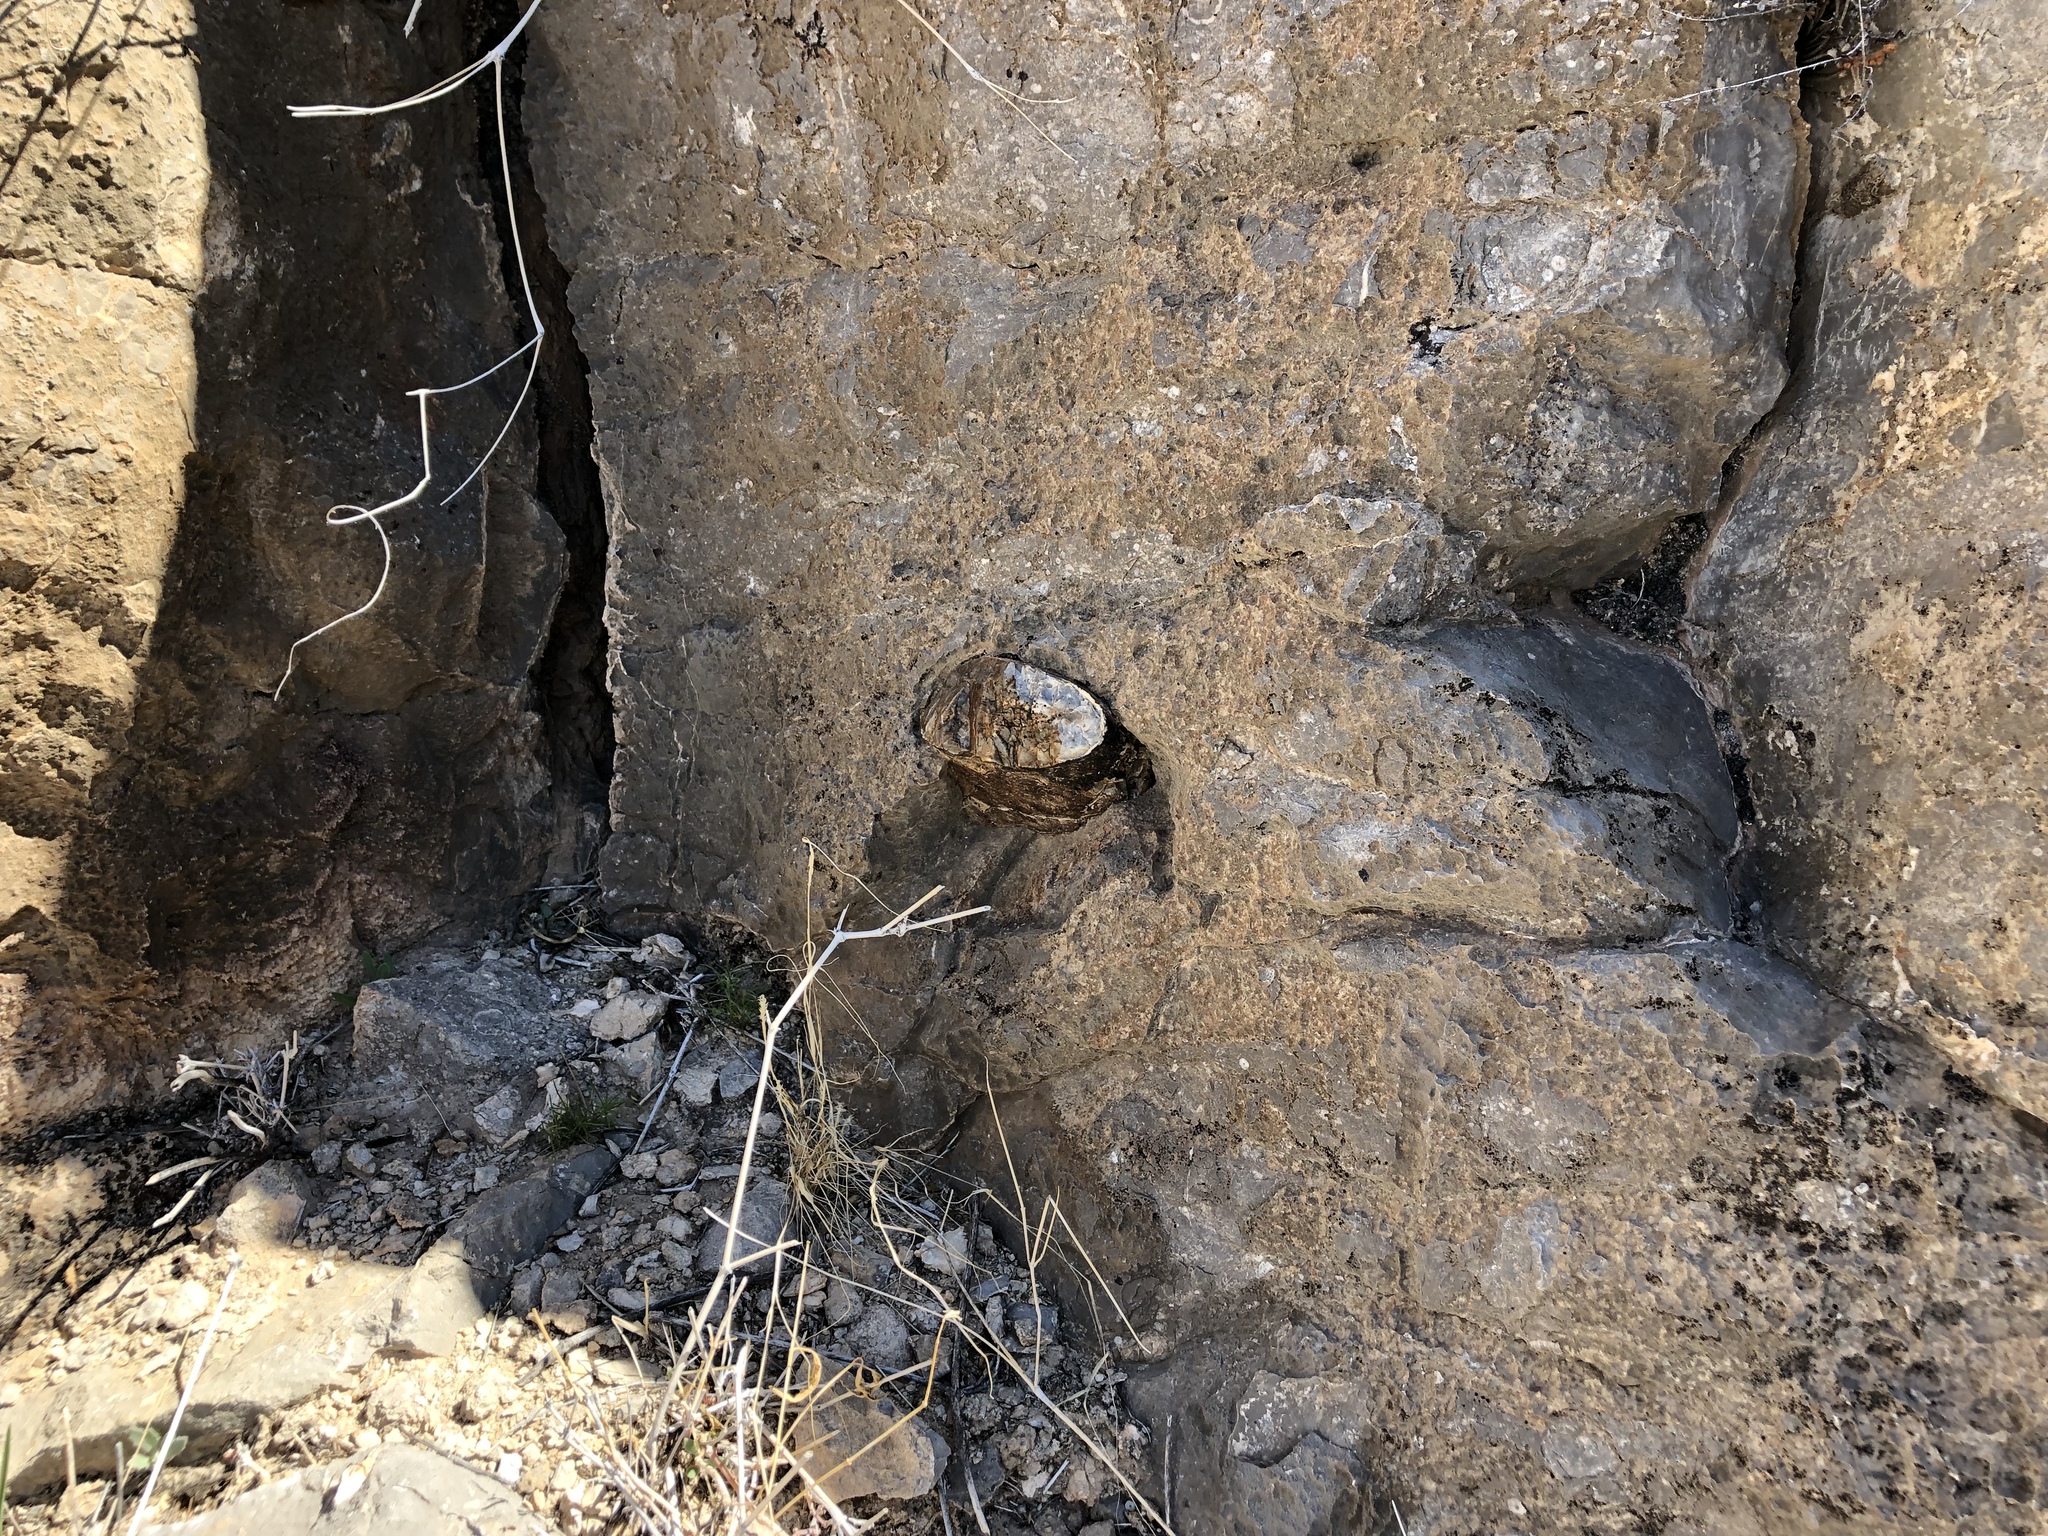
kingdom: Plantae
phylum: Tracheophyta
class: Magnoliopsida
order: Brassicales
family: Brassicaceae
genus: Physaria
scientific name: Physaria purpurea
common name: Rose bladderpod
